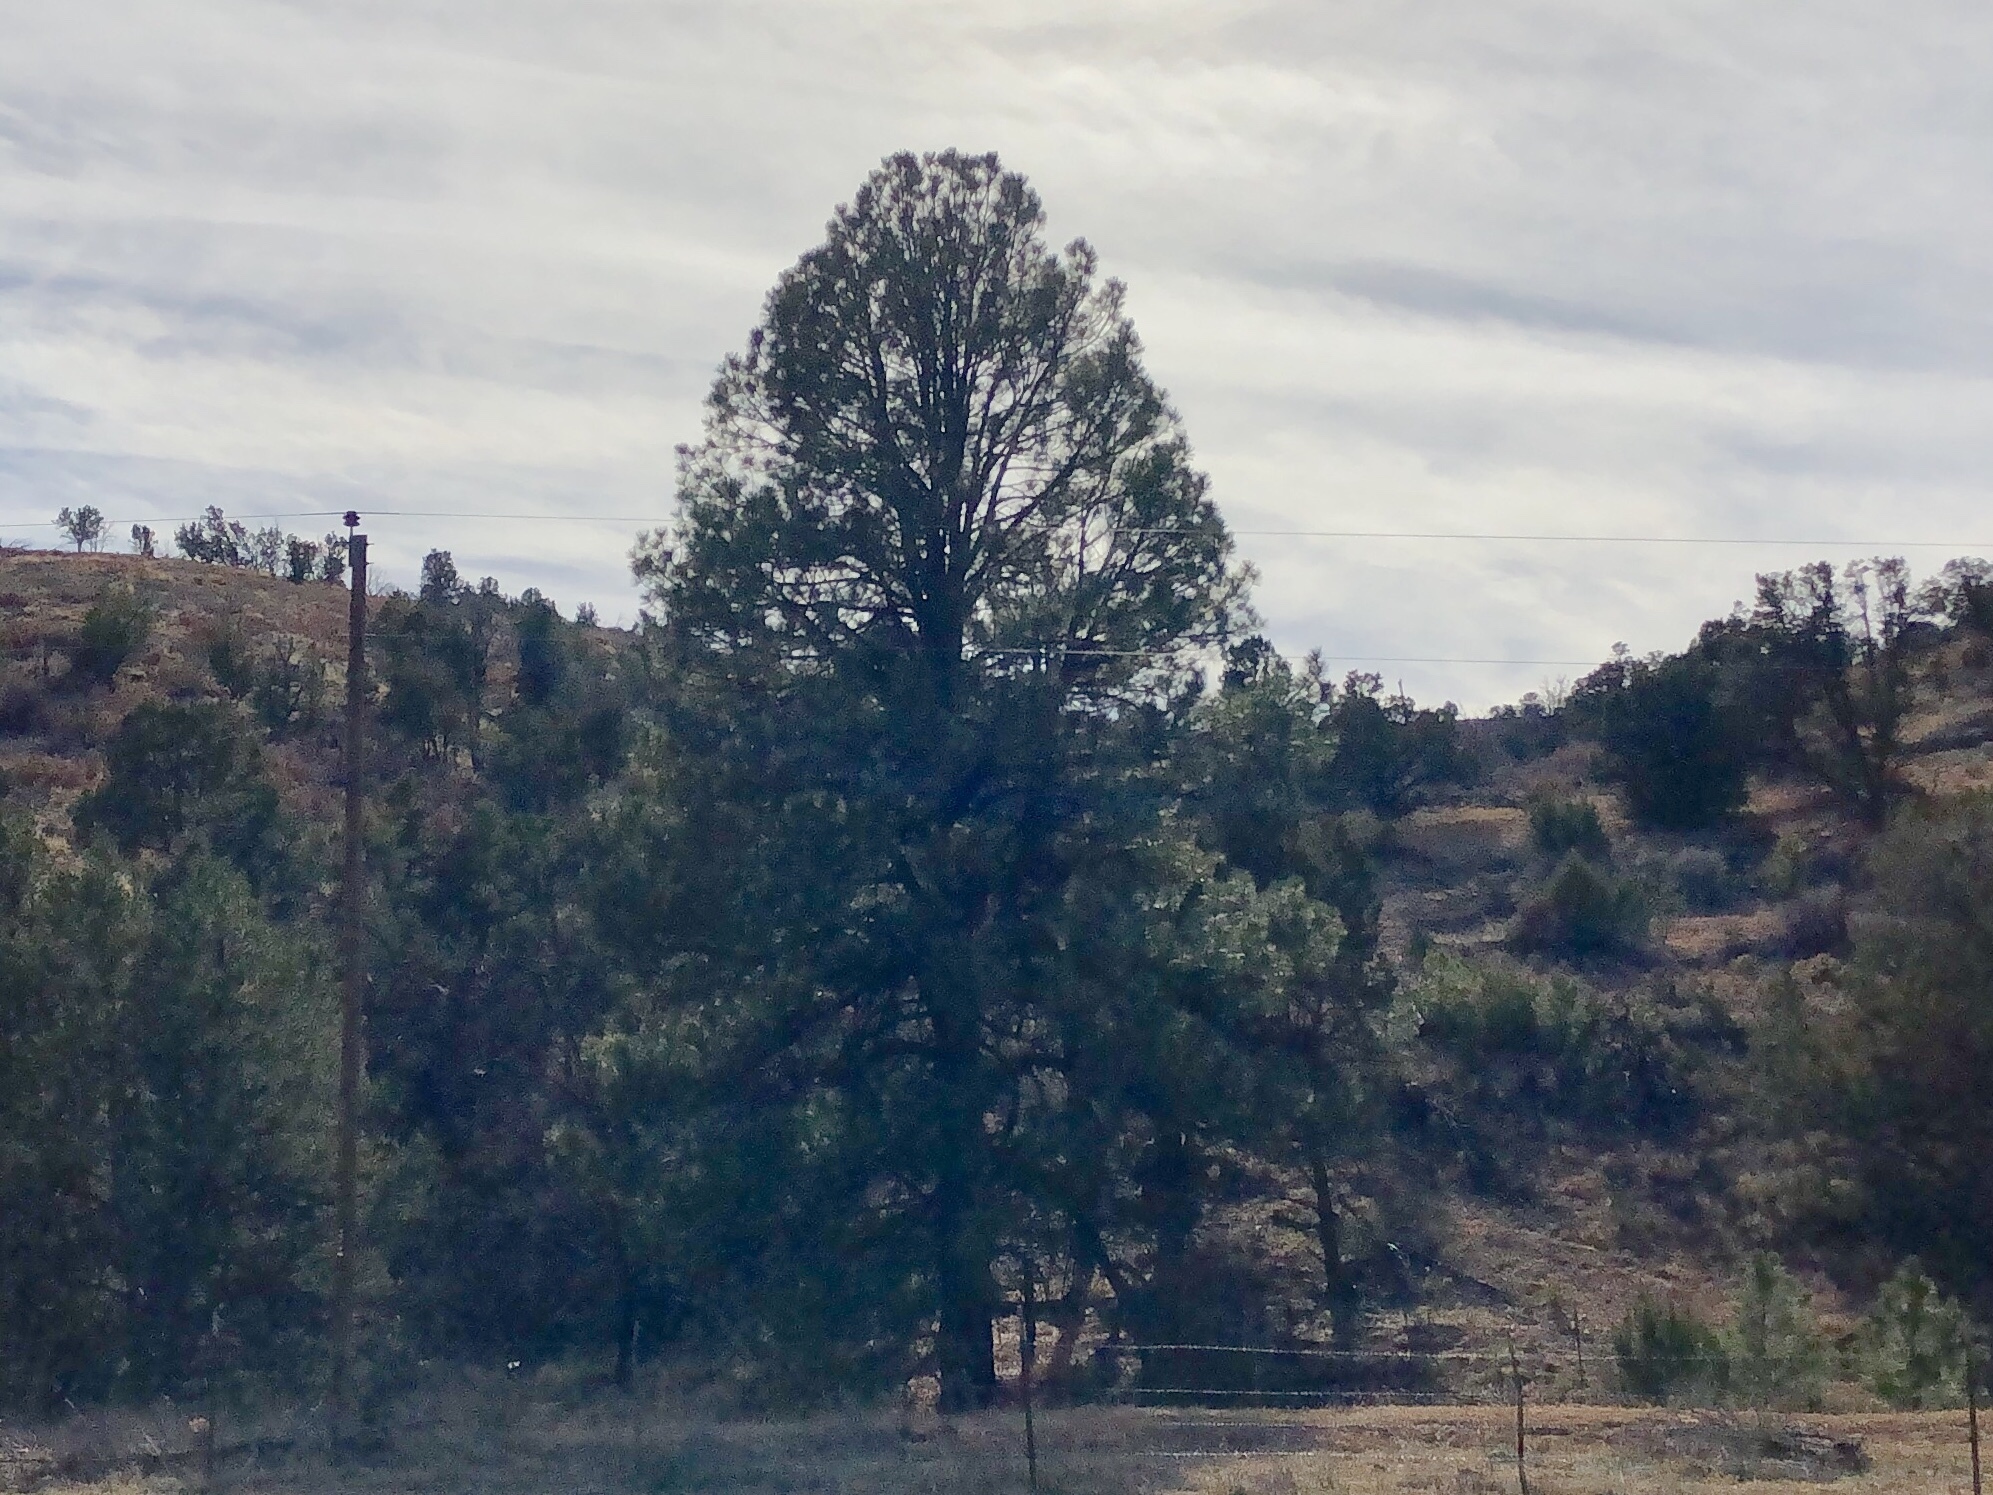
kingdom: Plantae
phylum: Tracheophyta
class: Pinopsida
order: Pinales
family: Pinaceae
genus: Pinus
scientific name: Pinus ponderosa
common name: Western yellow-pine
